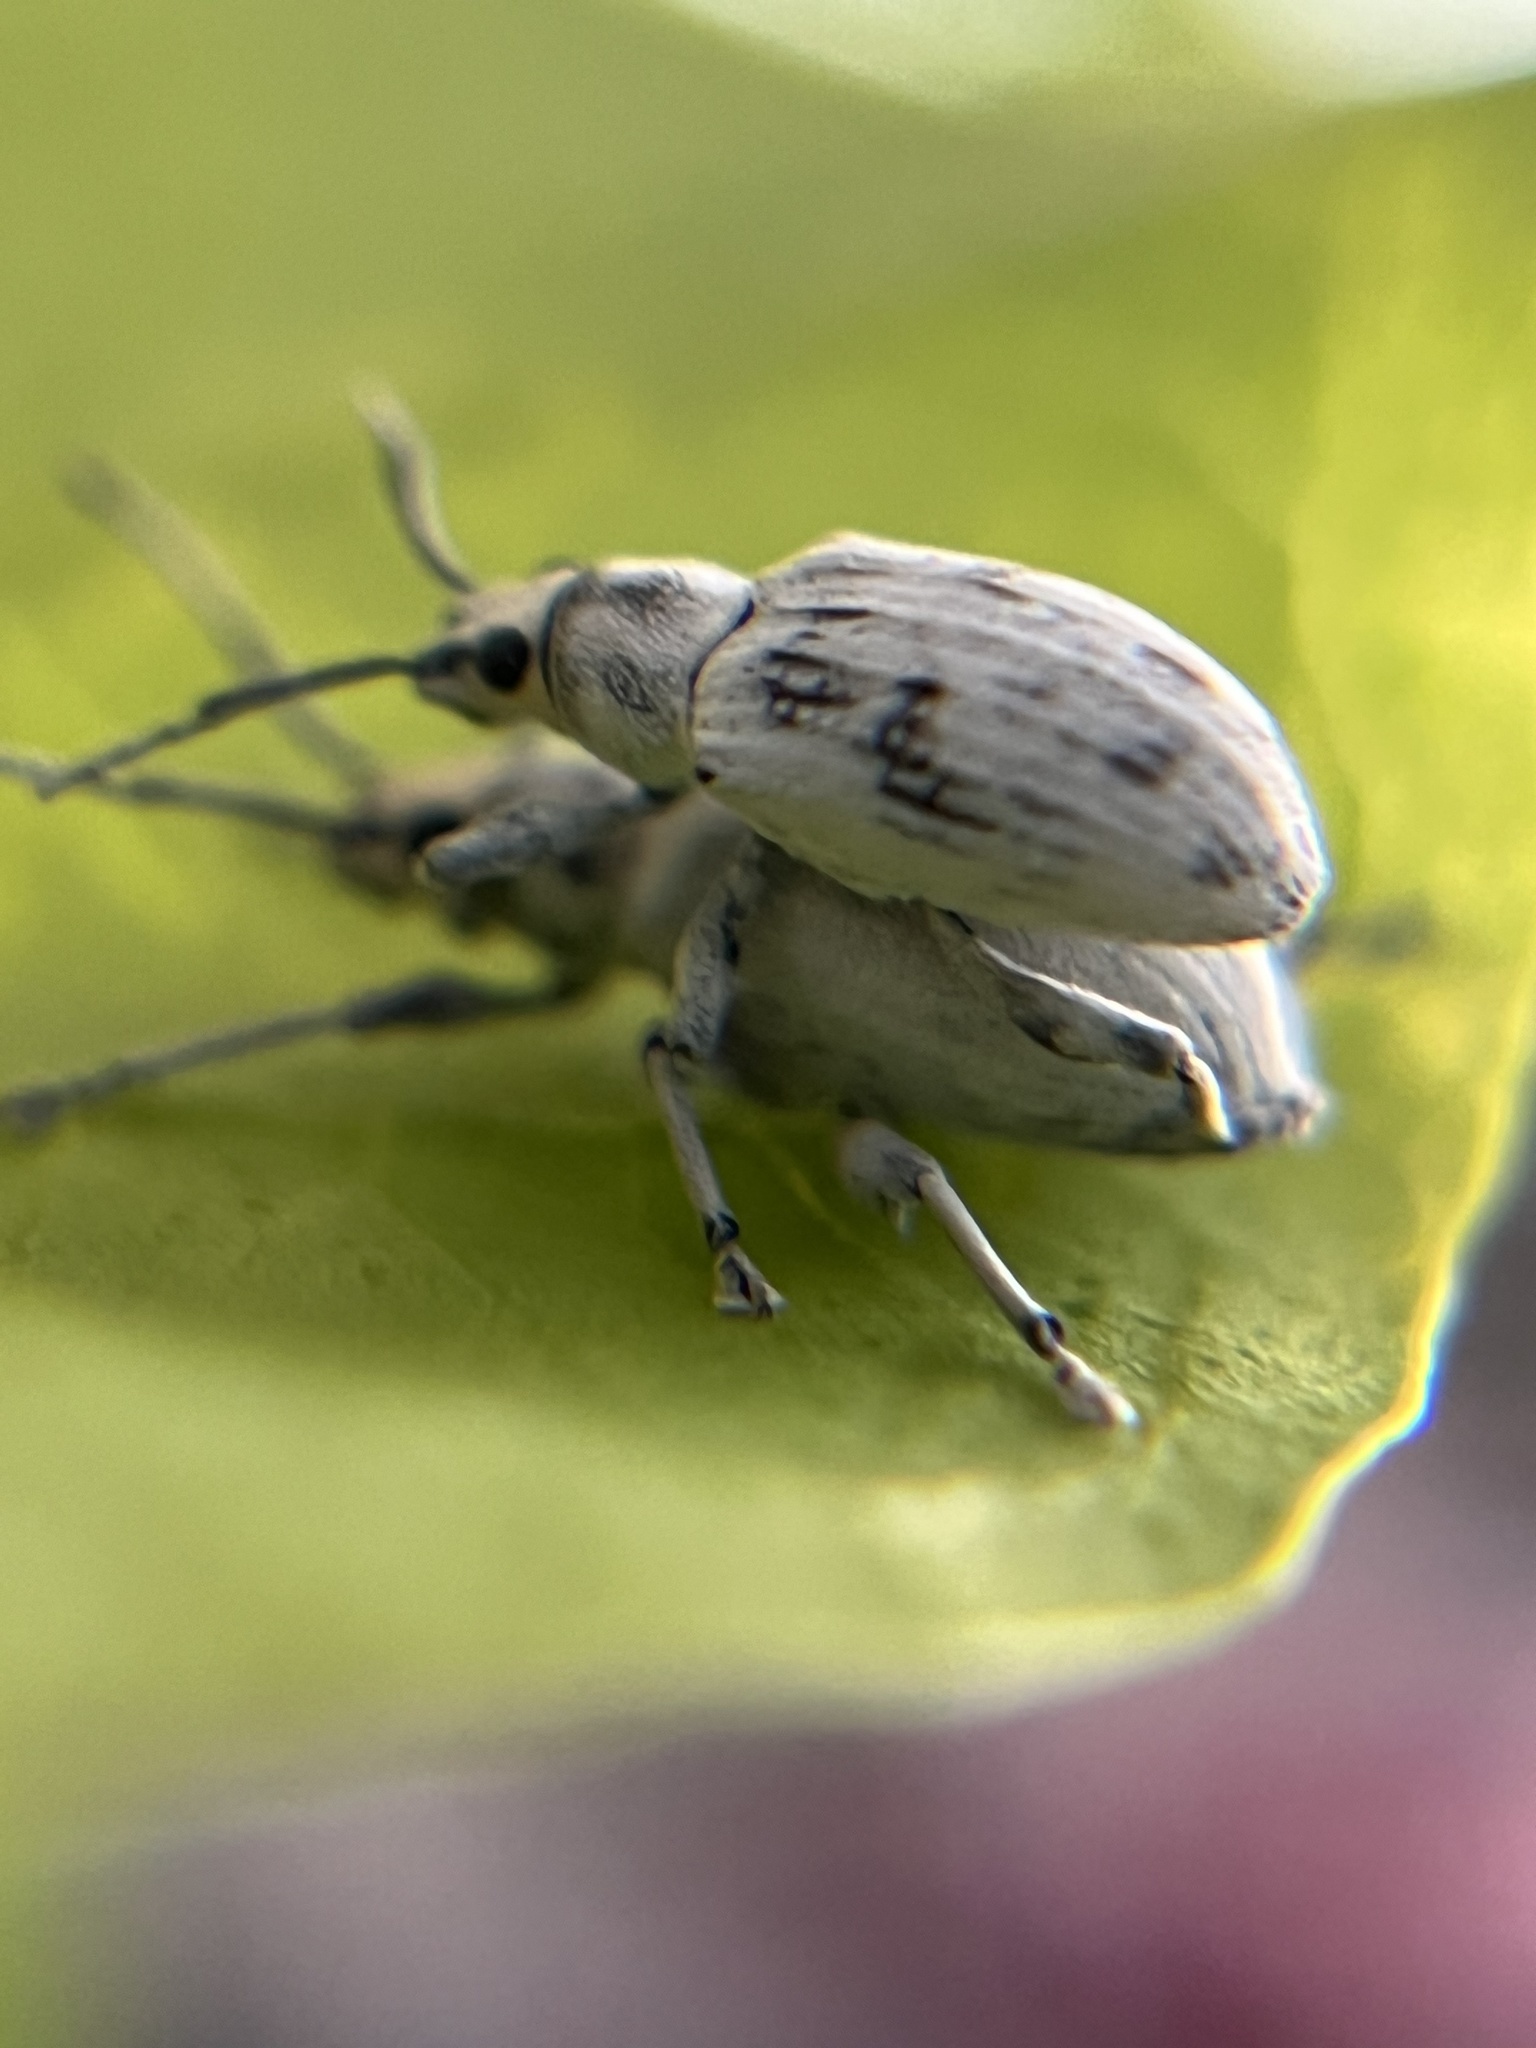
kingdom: Animalia
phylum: Arthropoda
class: Insecta
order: Coleoptera
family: Curculionidae
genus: Myllocerus
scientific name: Myllocerus undecimpustulatus
